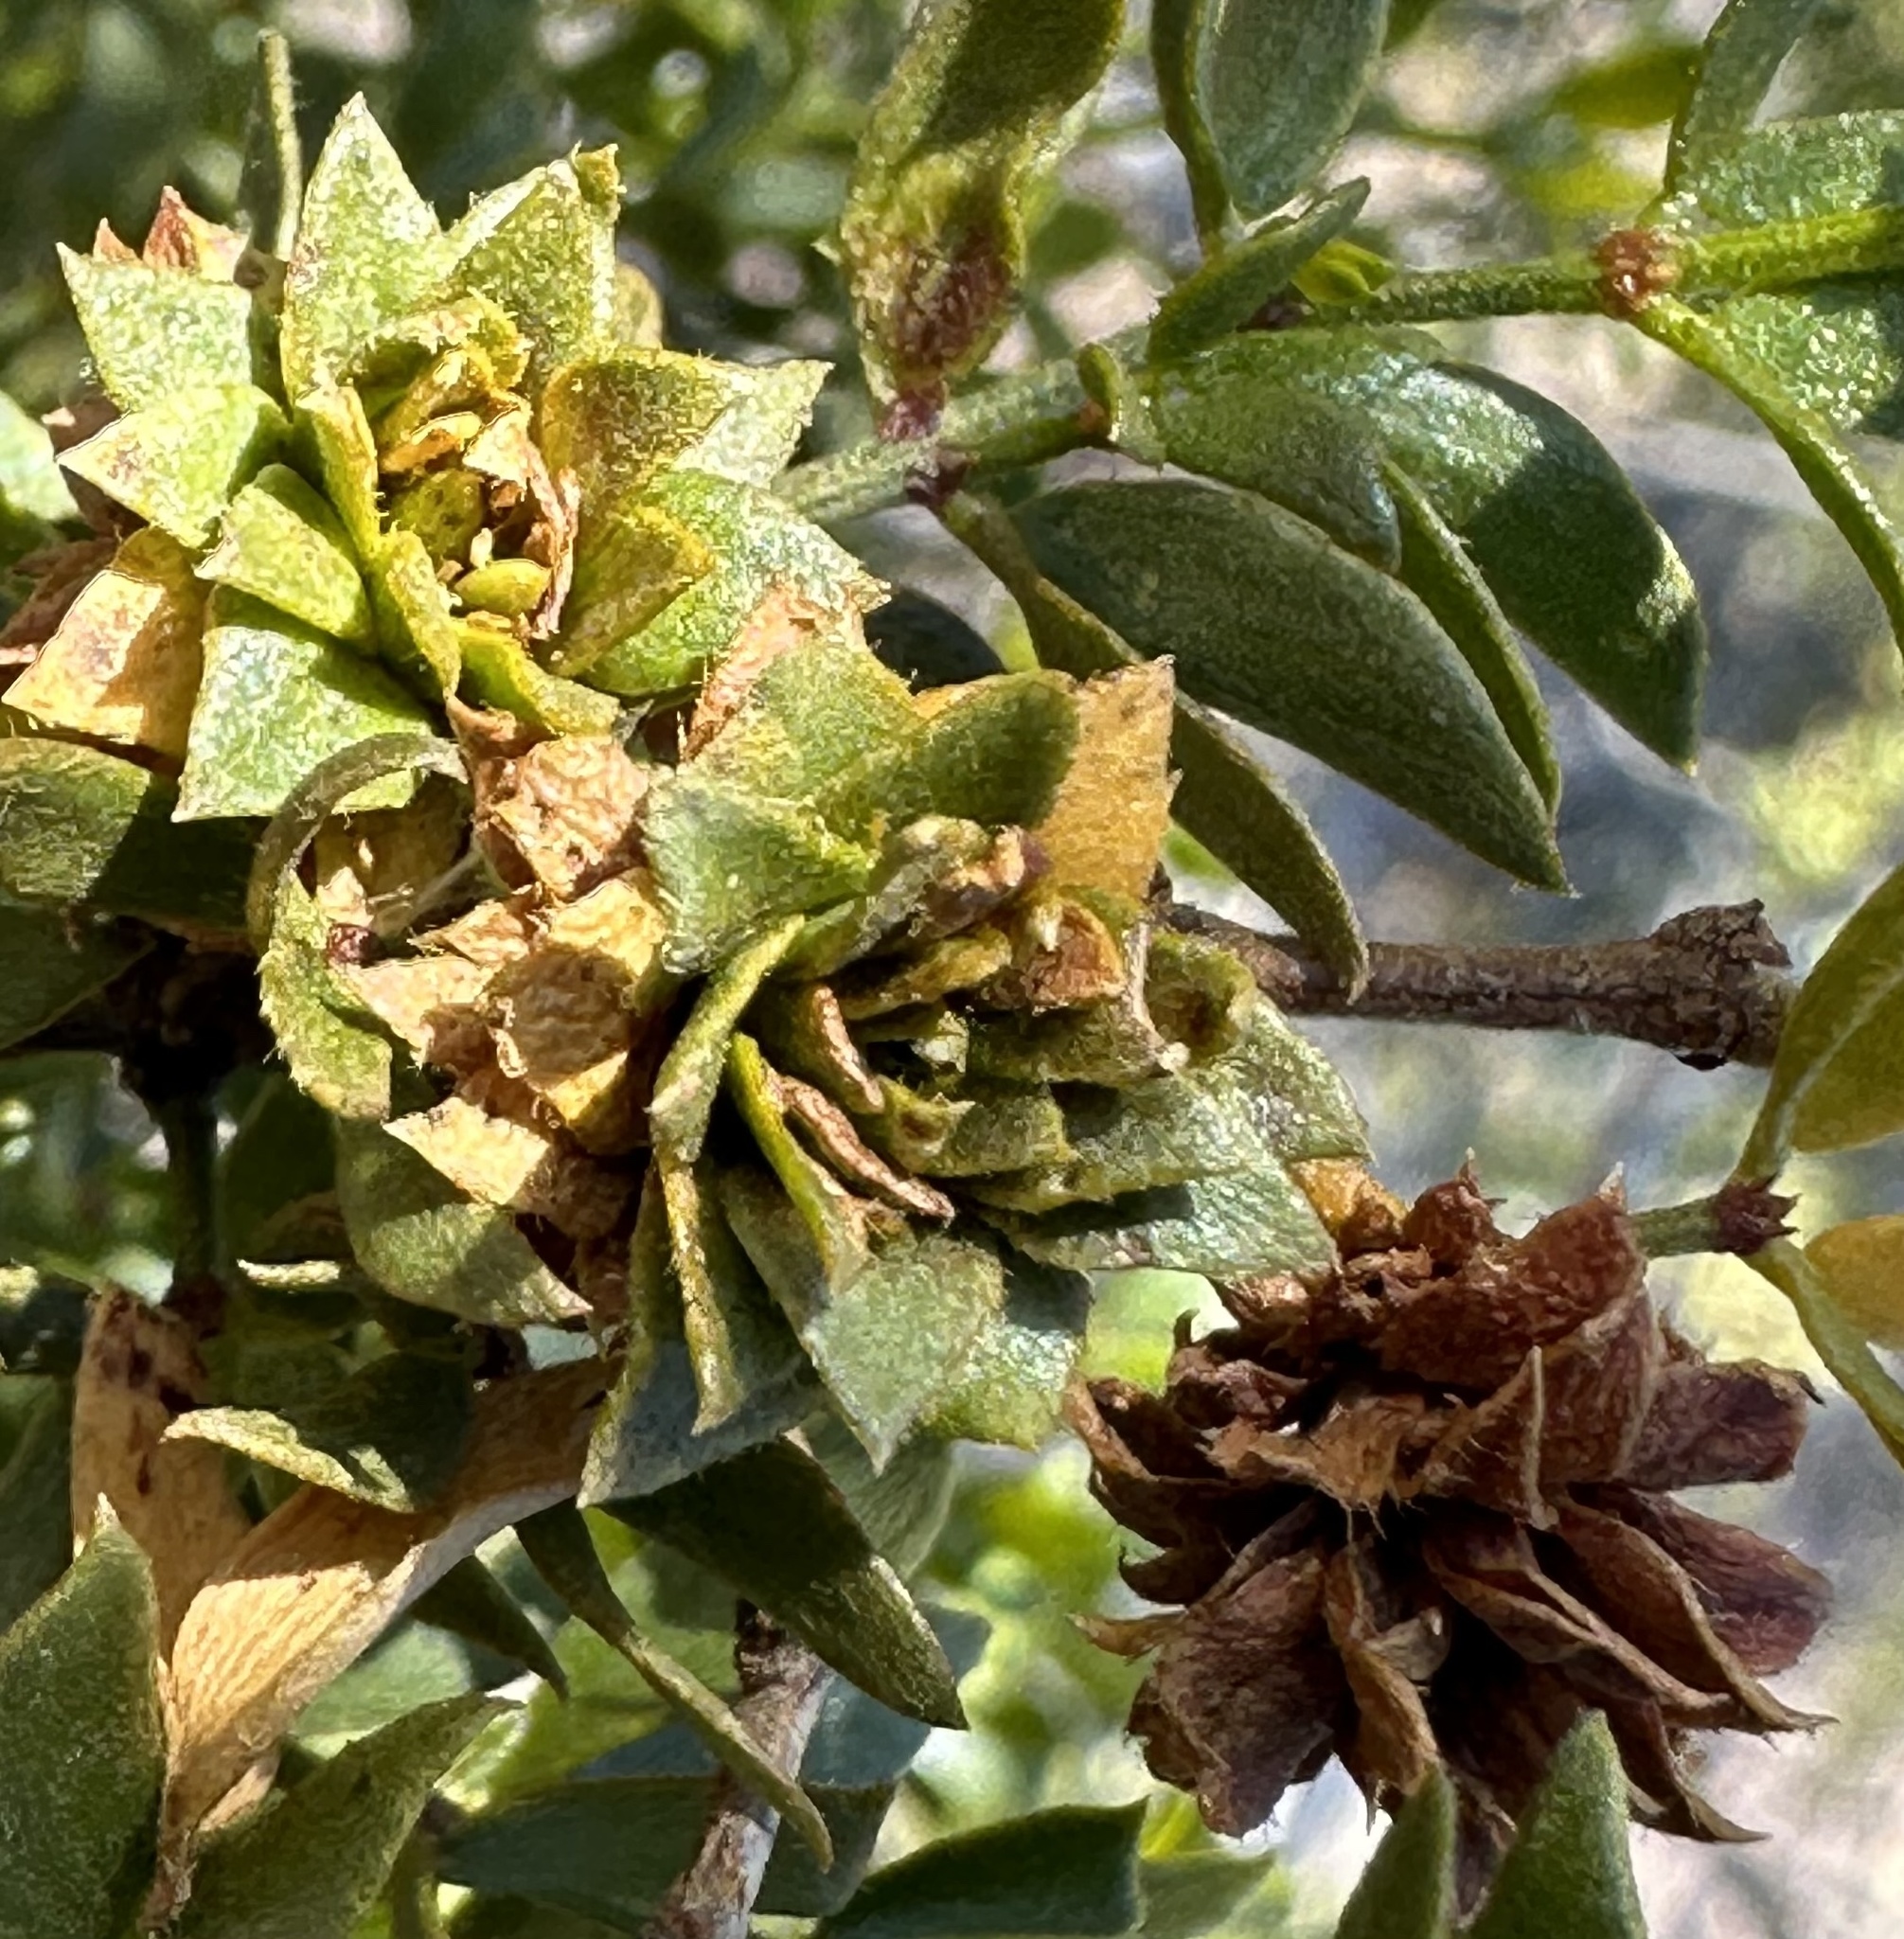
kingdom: Animalia
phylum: Arthropoda
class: Insecta
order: Diptera
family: Cecidomyiidae
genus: Asphondylia
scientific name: Asphondylia rosetta
